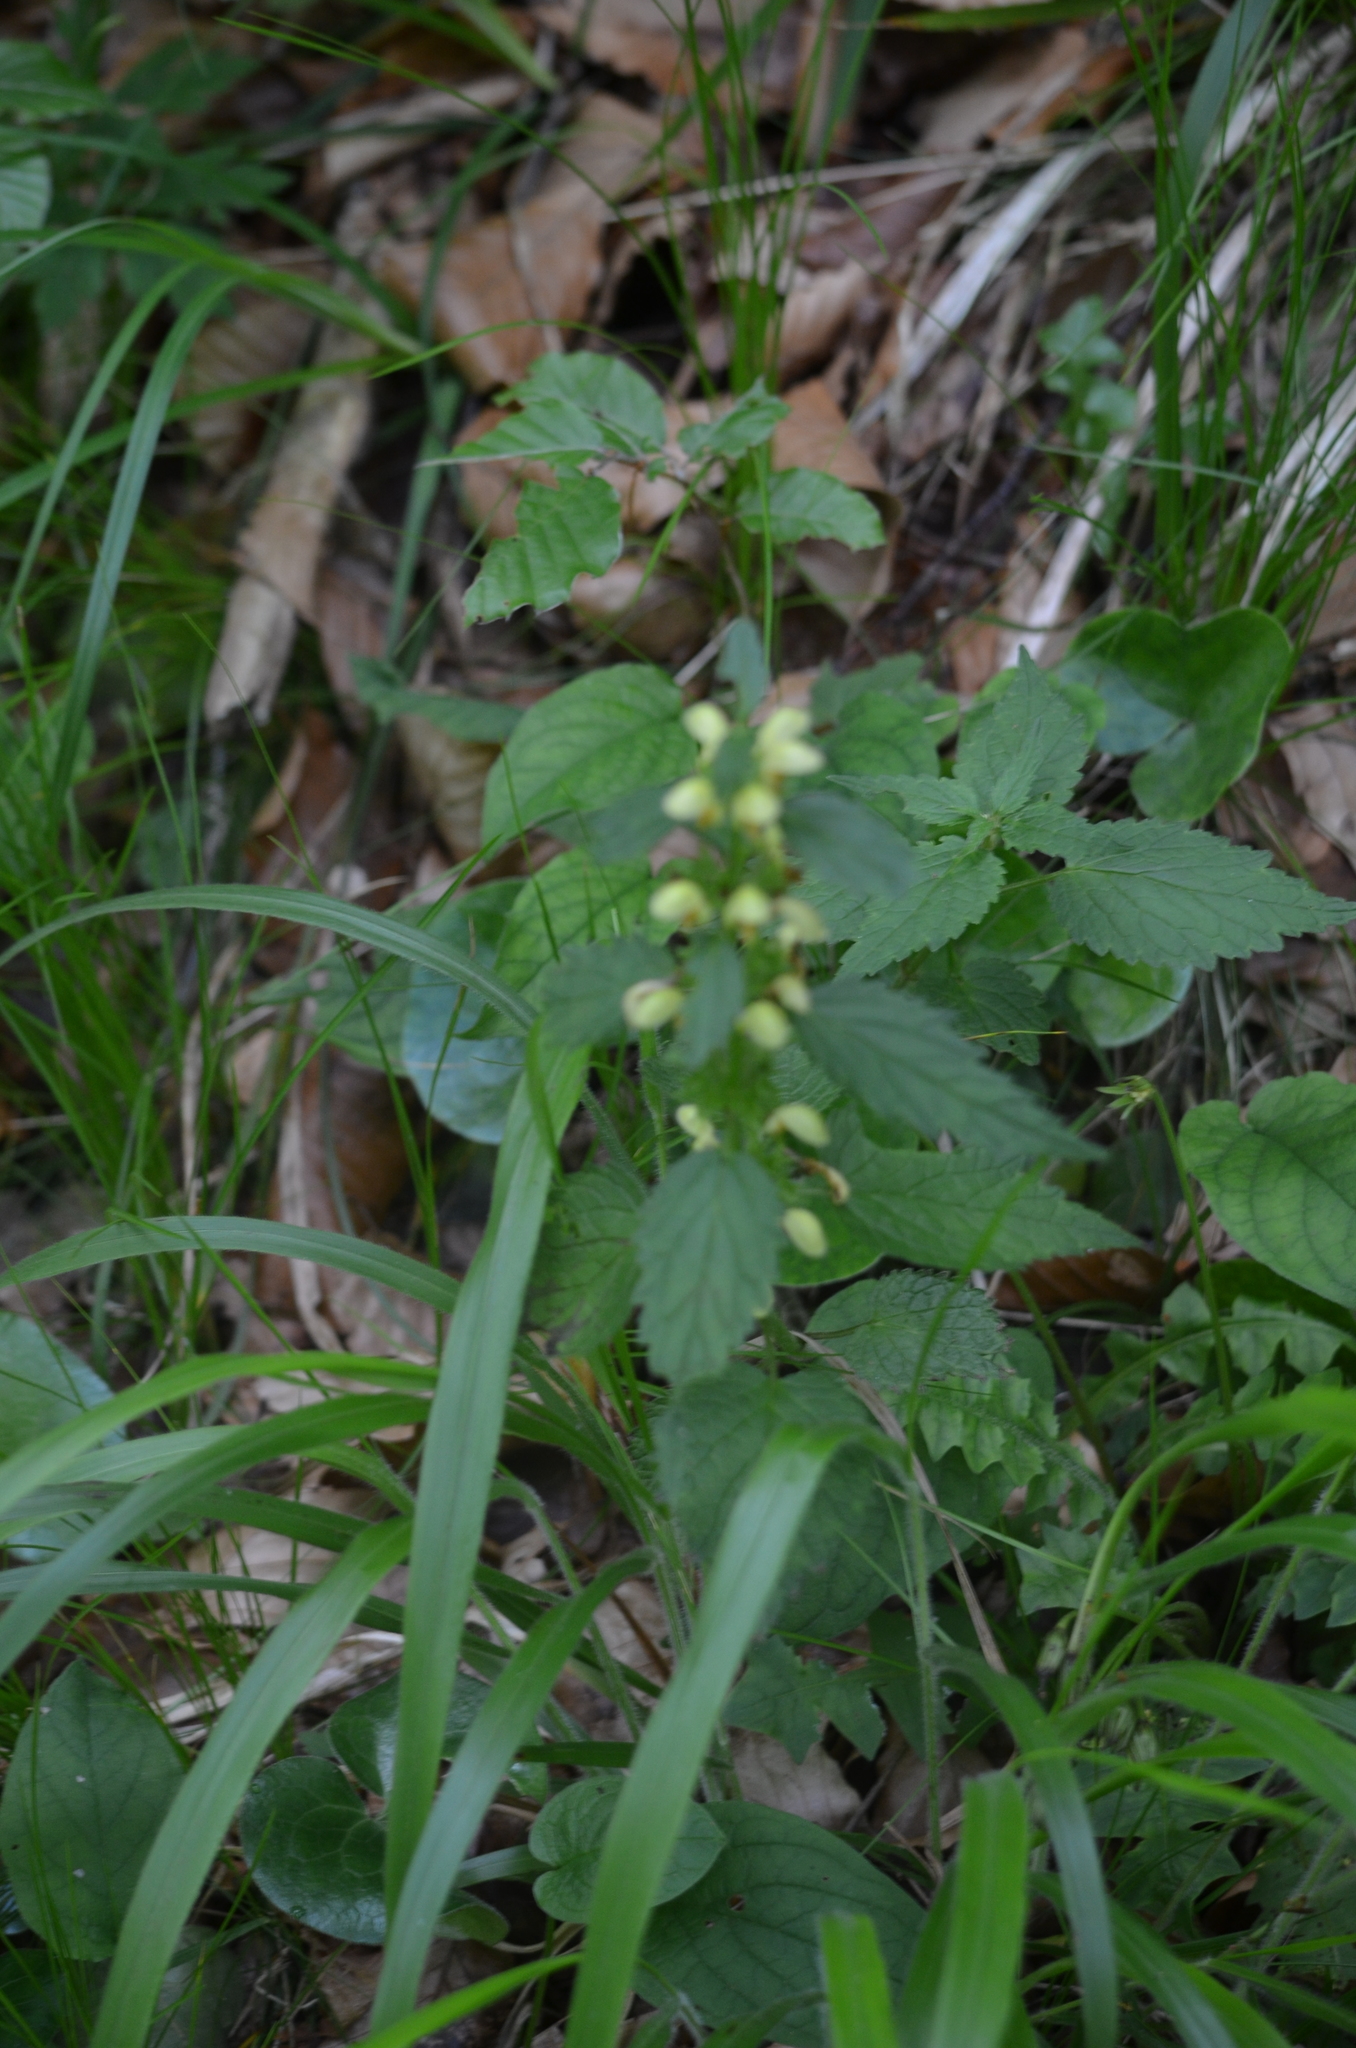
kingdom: Plantae
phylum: Tracheophyta
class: Magnoliopsida
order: Lamiales
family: Lamiaceae
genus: Lamium
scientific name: Lamium galeobdolon
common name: Yellow archangel
